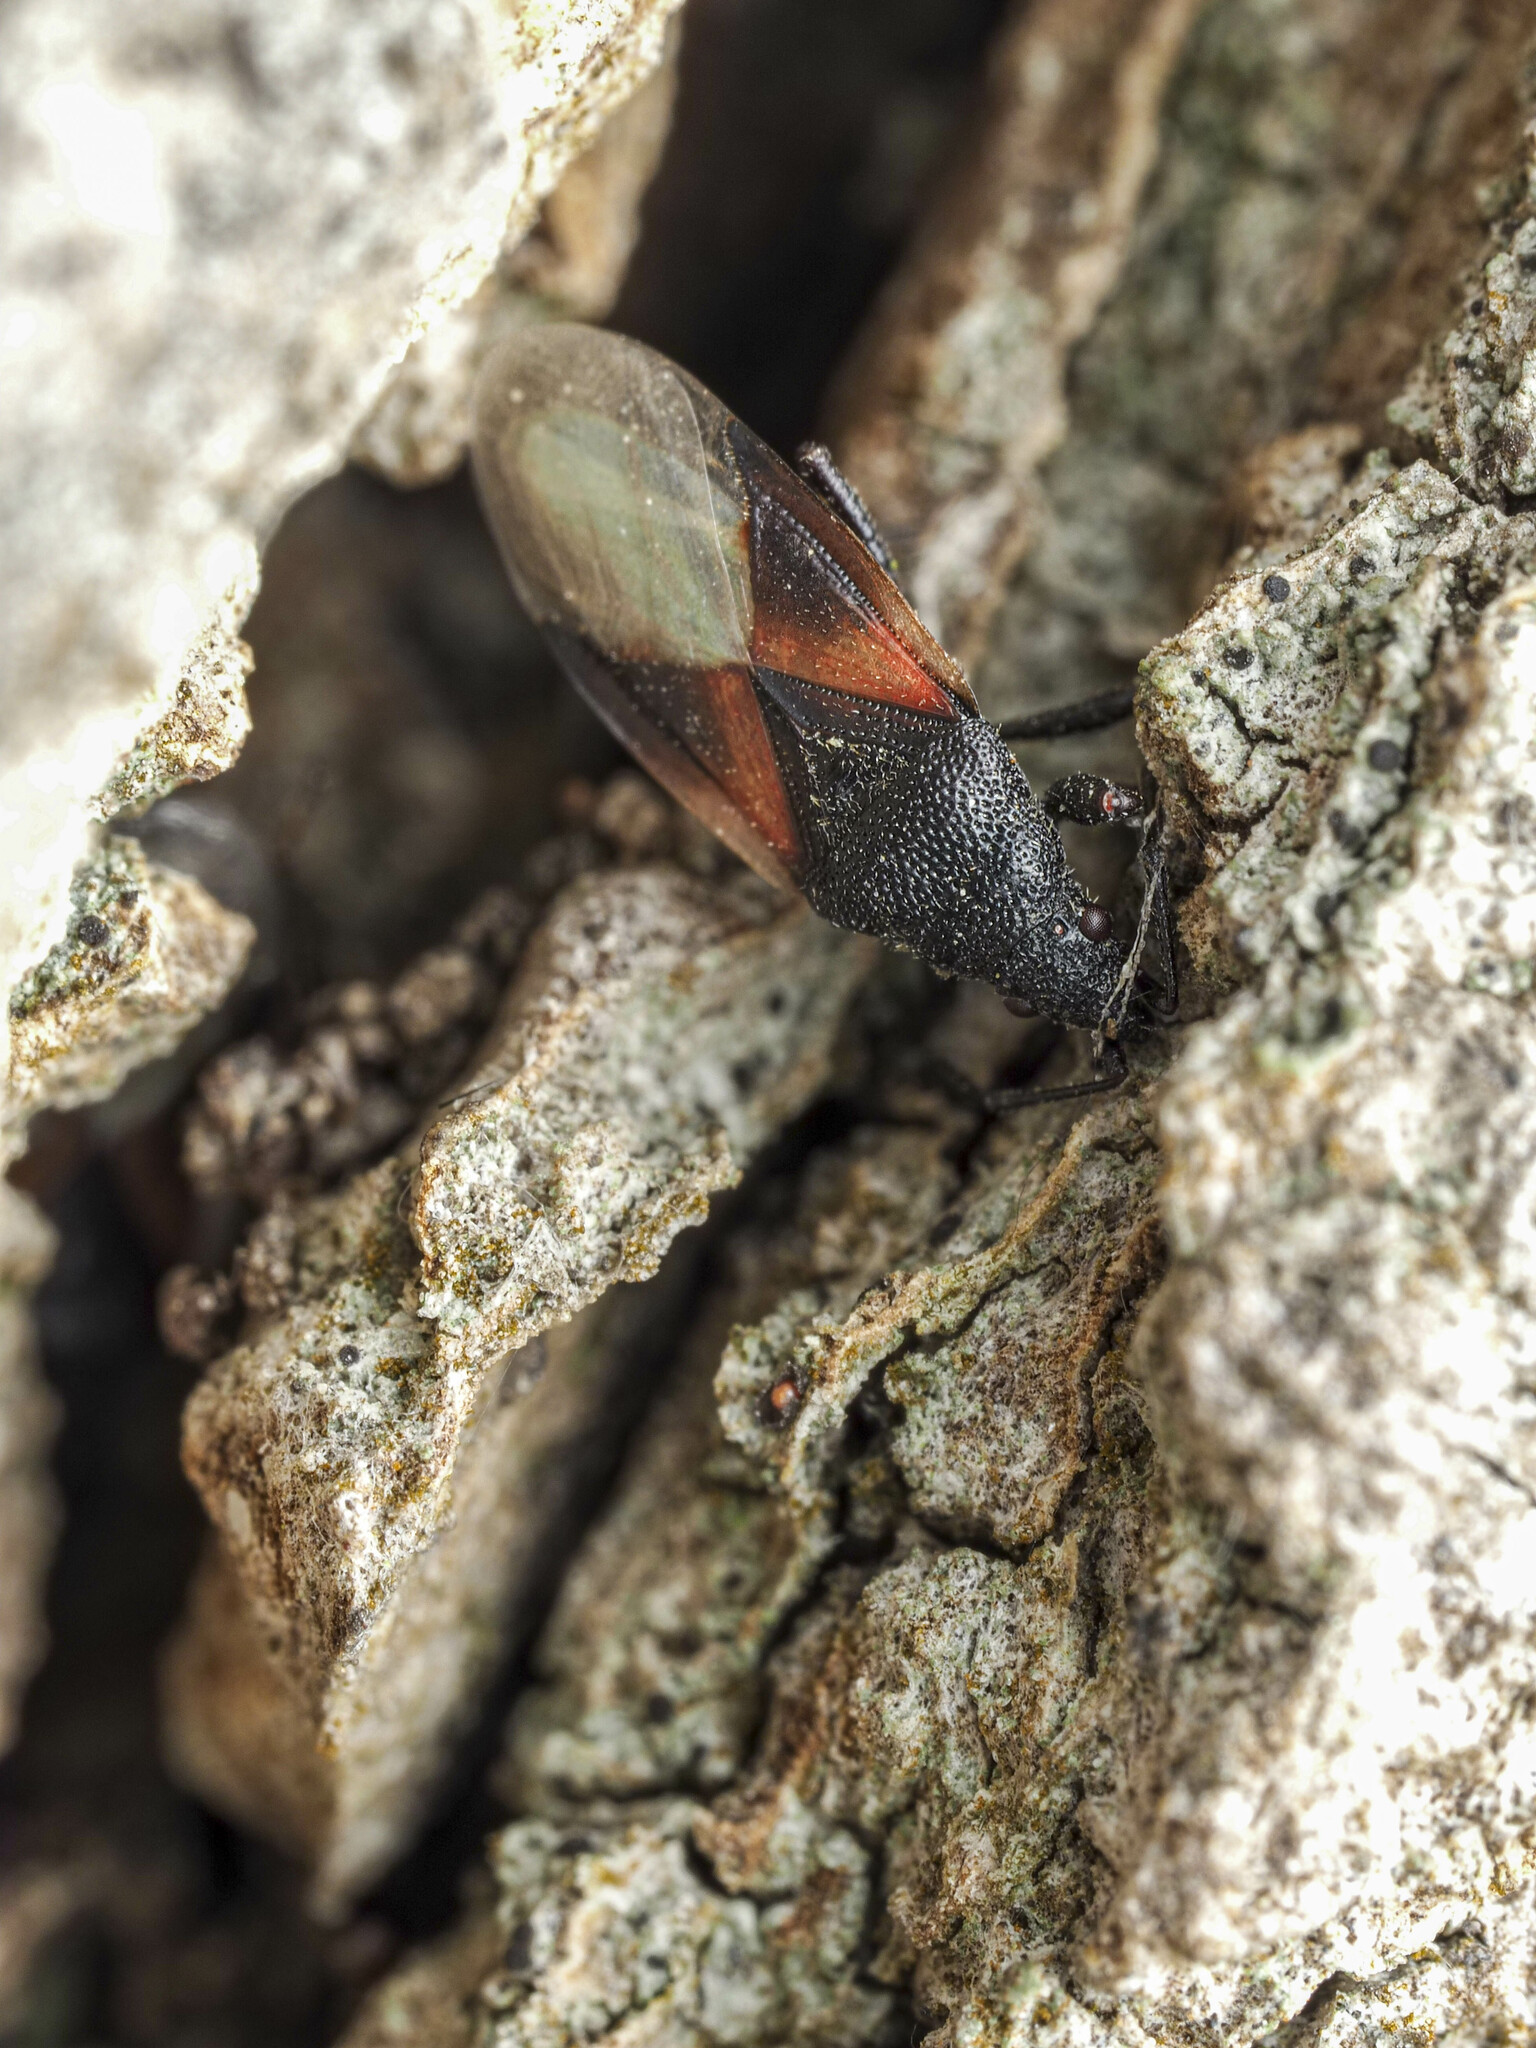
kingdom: Animalia
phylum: Arthropoda
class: Insecta
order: Hemiptera
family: Oxycarenidae
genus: Oxycarenus
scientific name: Oxycarenus lavaterae
